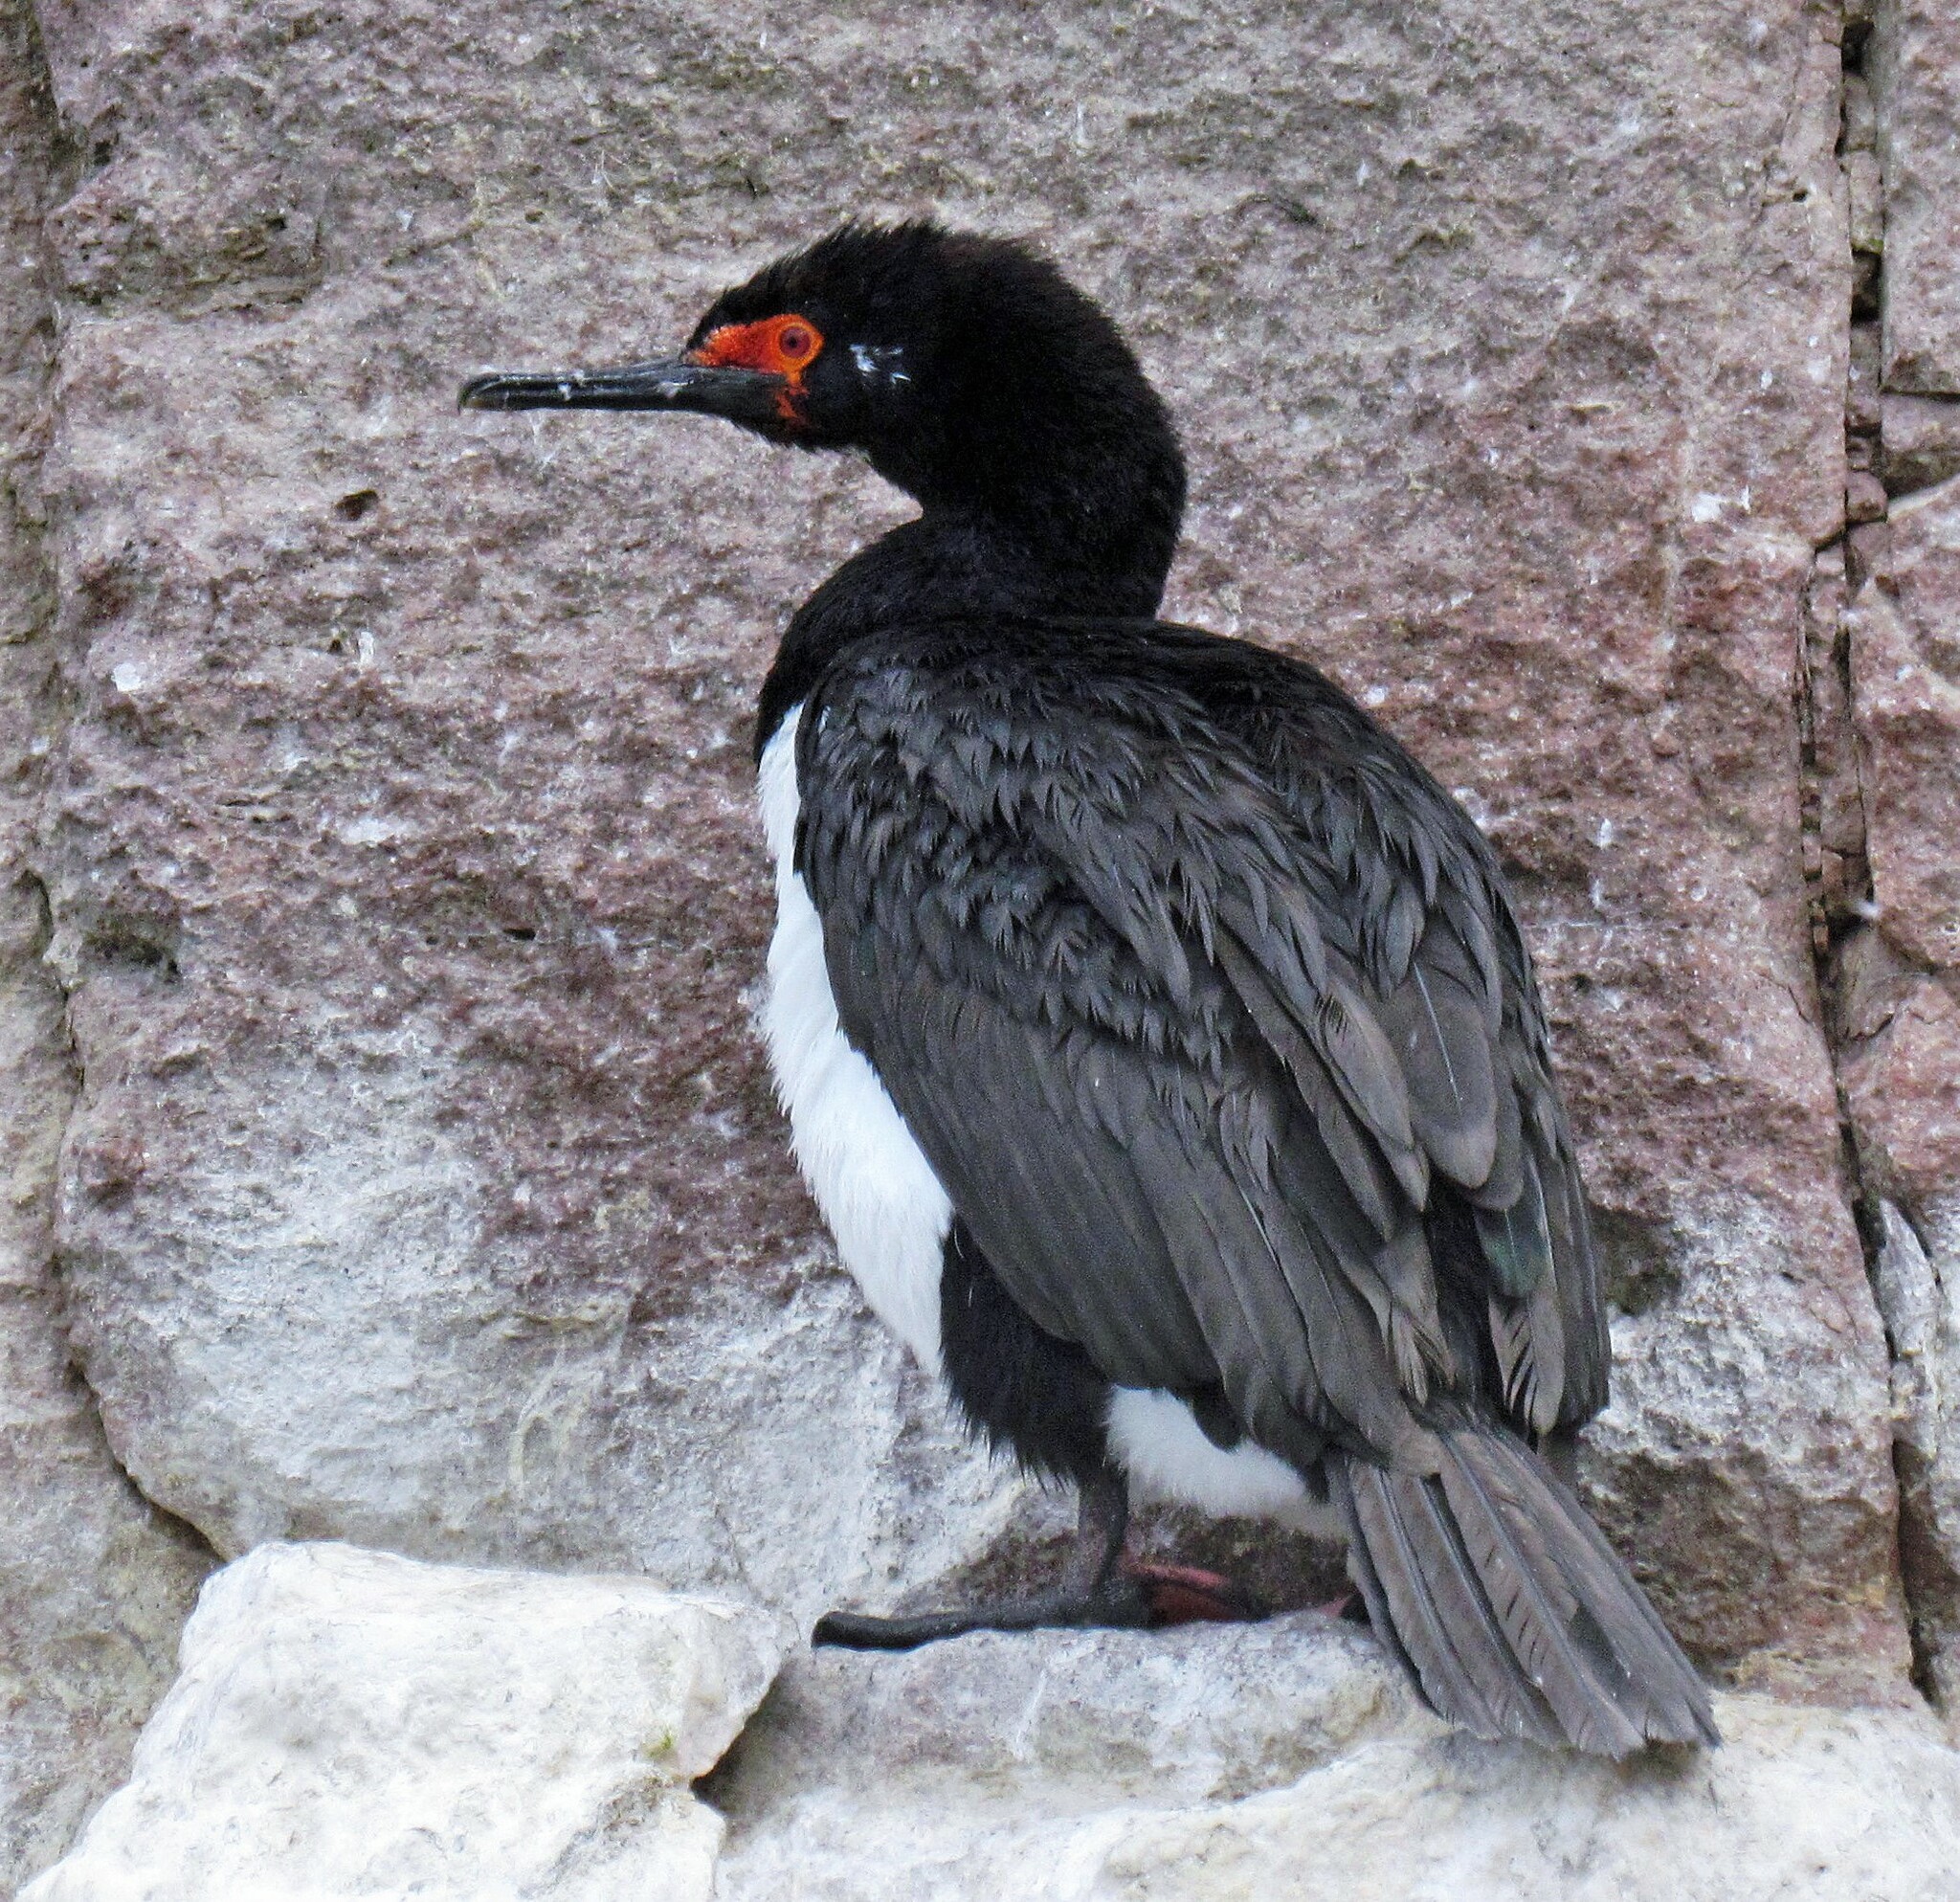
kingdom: Animalia
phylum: Chordata
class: Aves
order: Suliformes
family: Phalacrocoracidae
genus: Phalacrocorax
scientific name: Phalacrocorax magellanicus
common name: Rock shag
